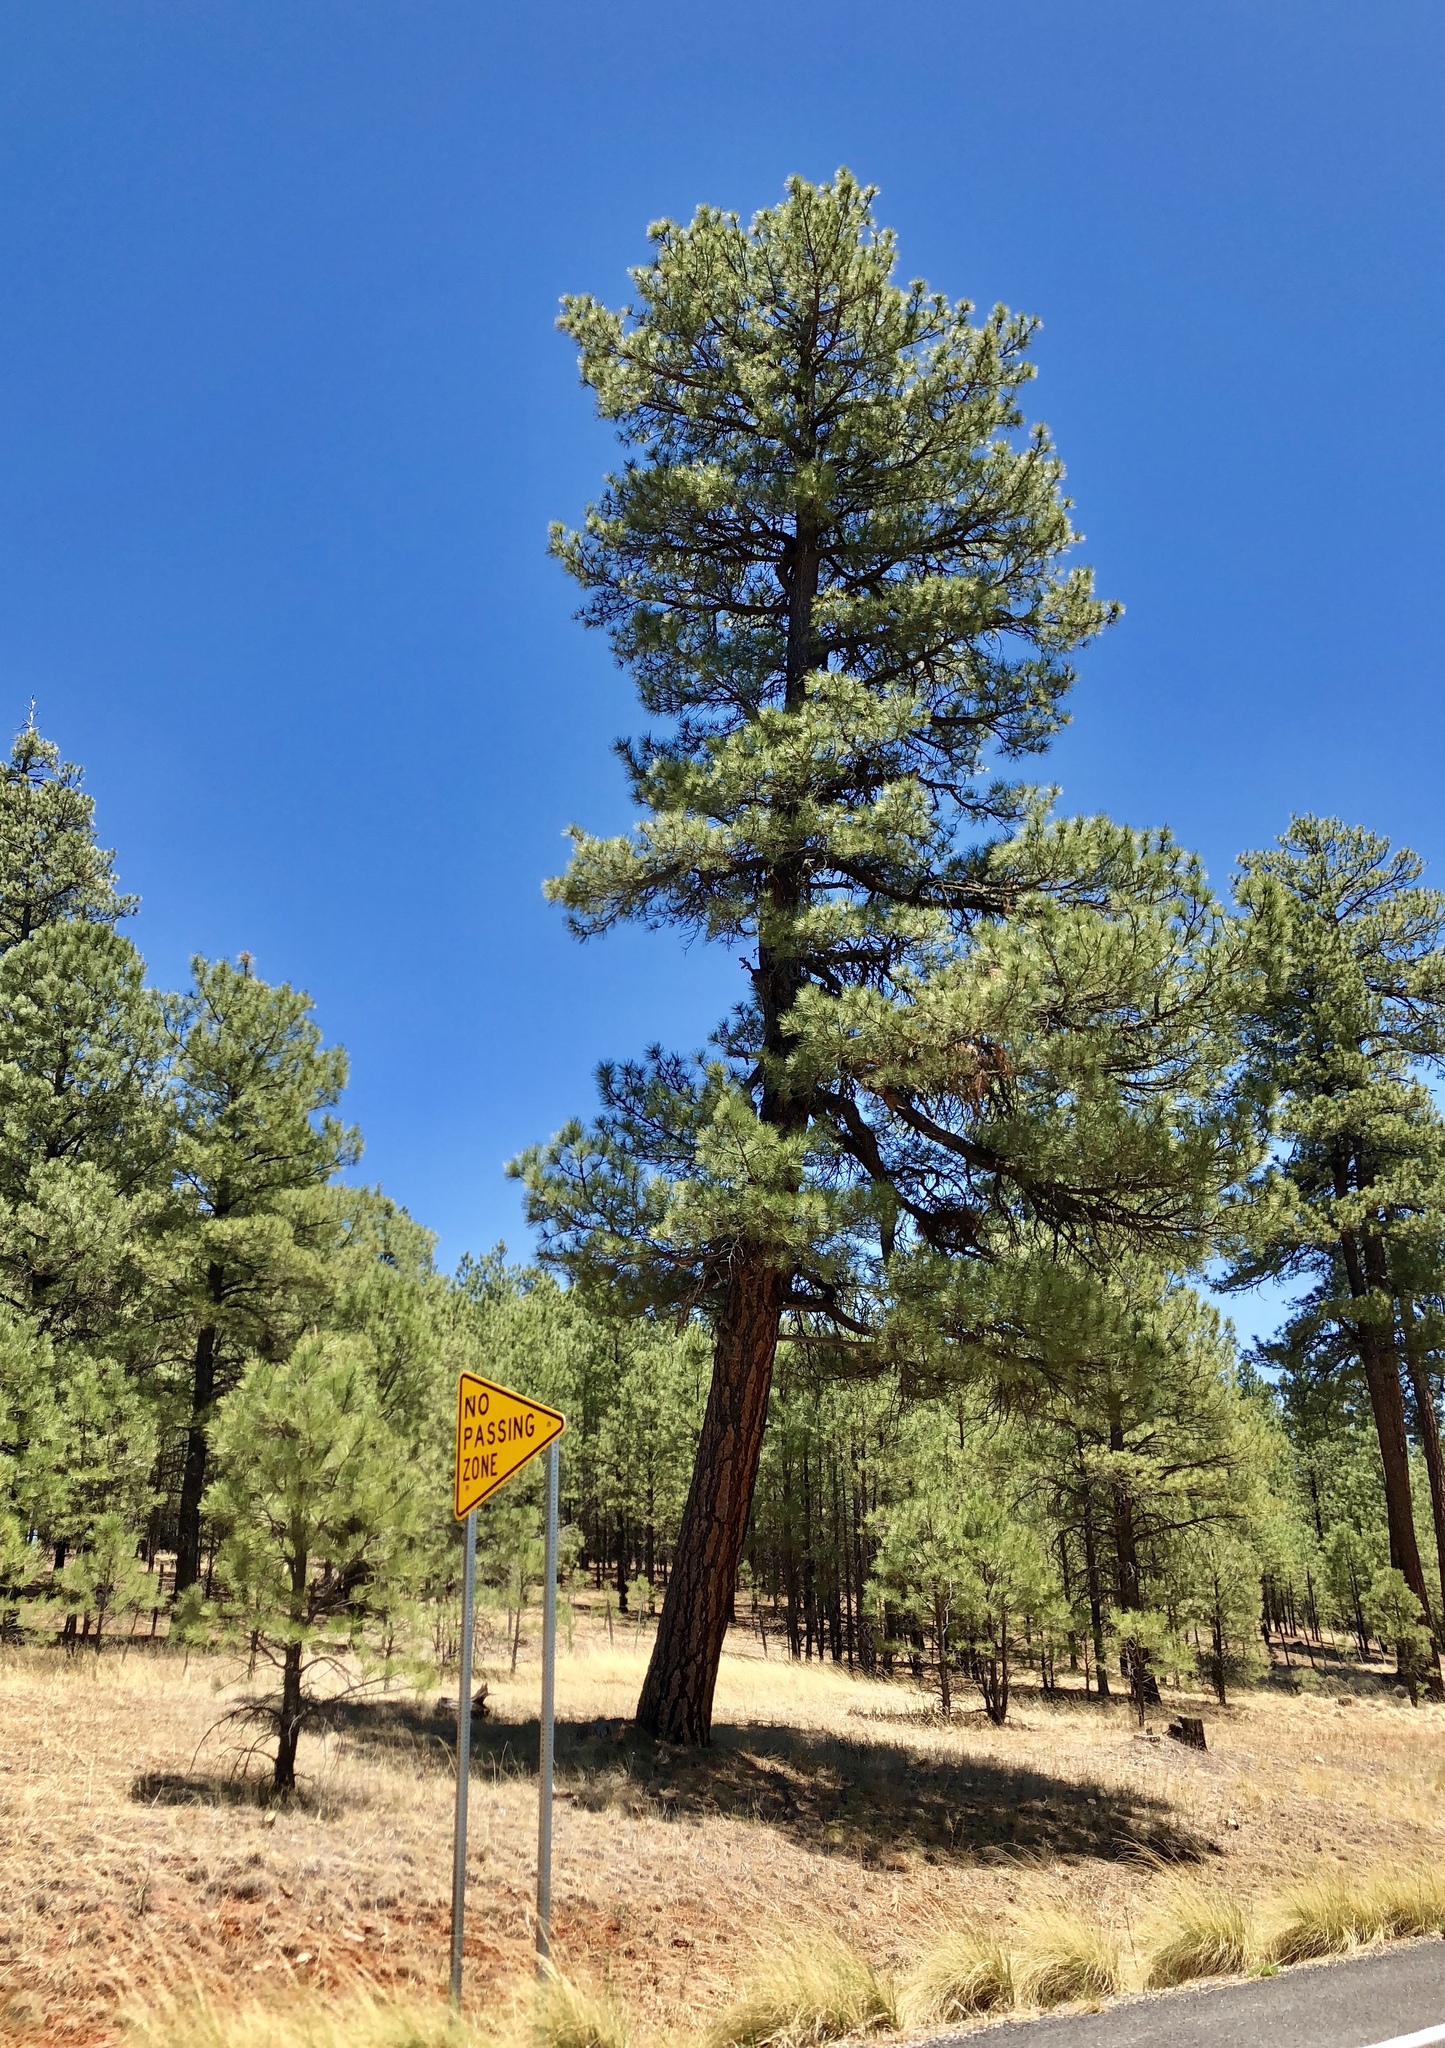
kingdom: Plantae
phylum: Tracheophyta
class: Pinopsida
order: Pinales
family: Pinaceae
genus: Pinus
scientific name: Pinus ponderosa
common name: Western yellow-pine
